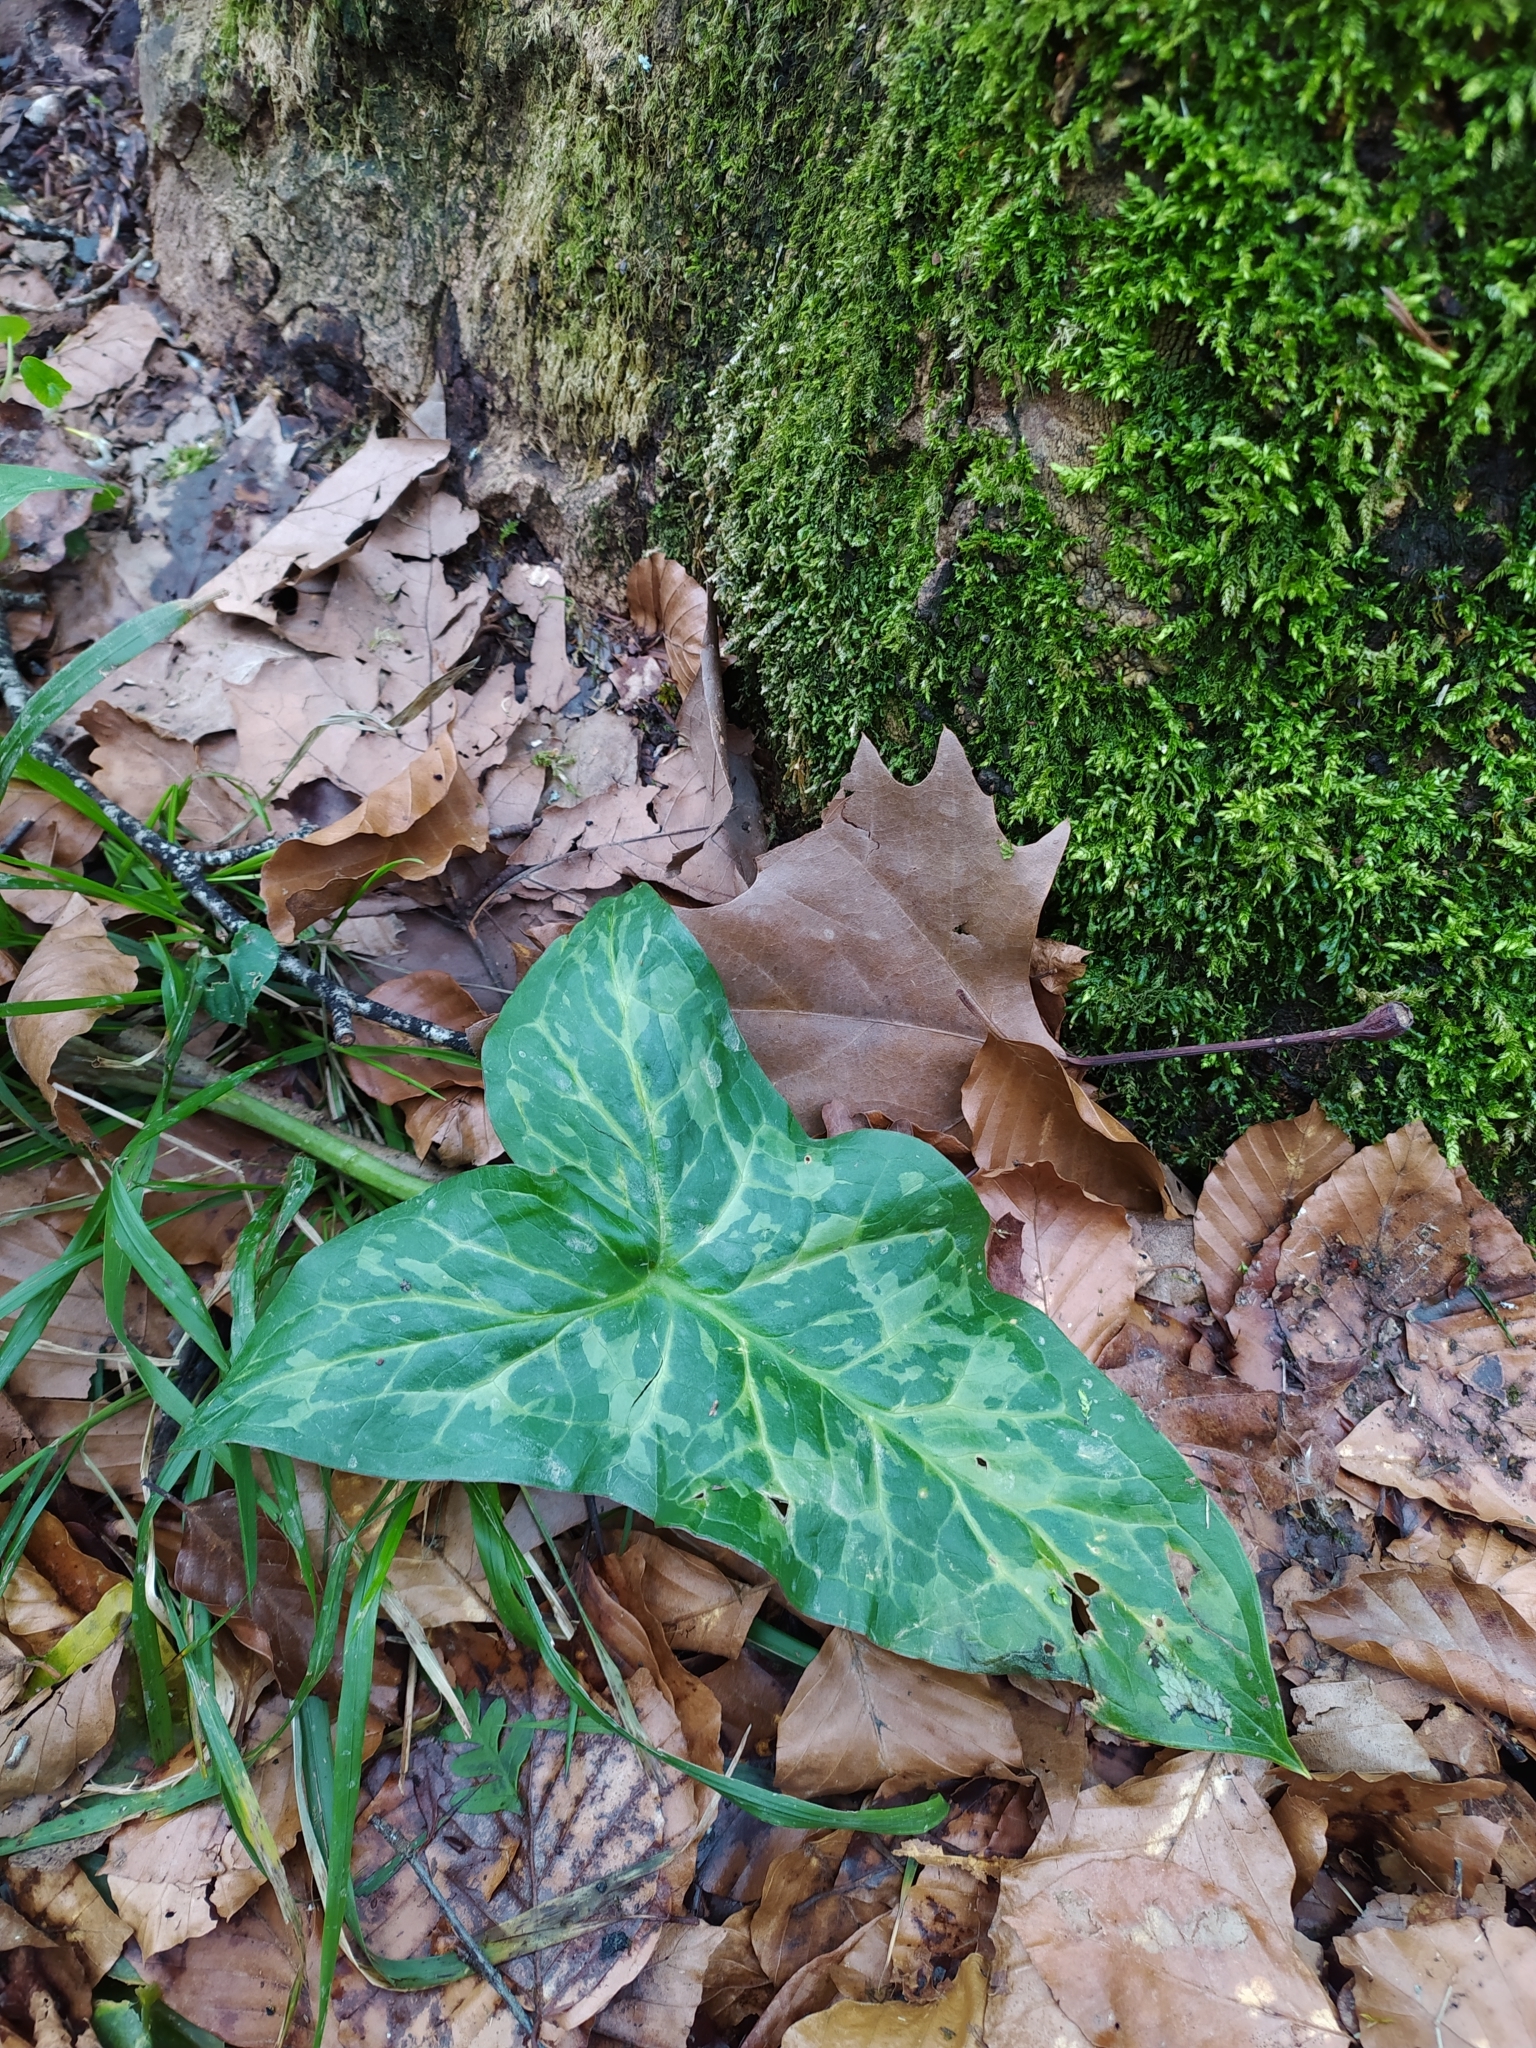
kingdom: Plantae
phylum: Tracheophyta
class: Liliopsida
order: Alismatales
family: Araceae
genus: Arum
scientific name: Arum italicum
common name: Italian lords-and-ladies
